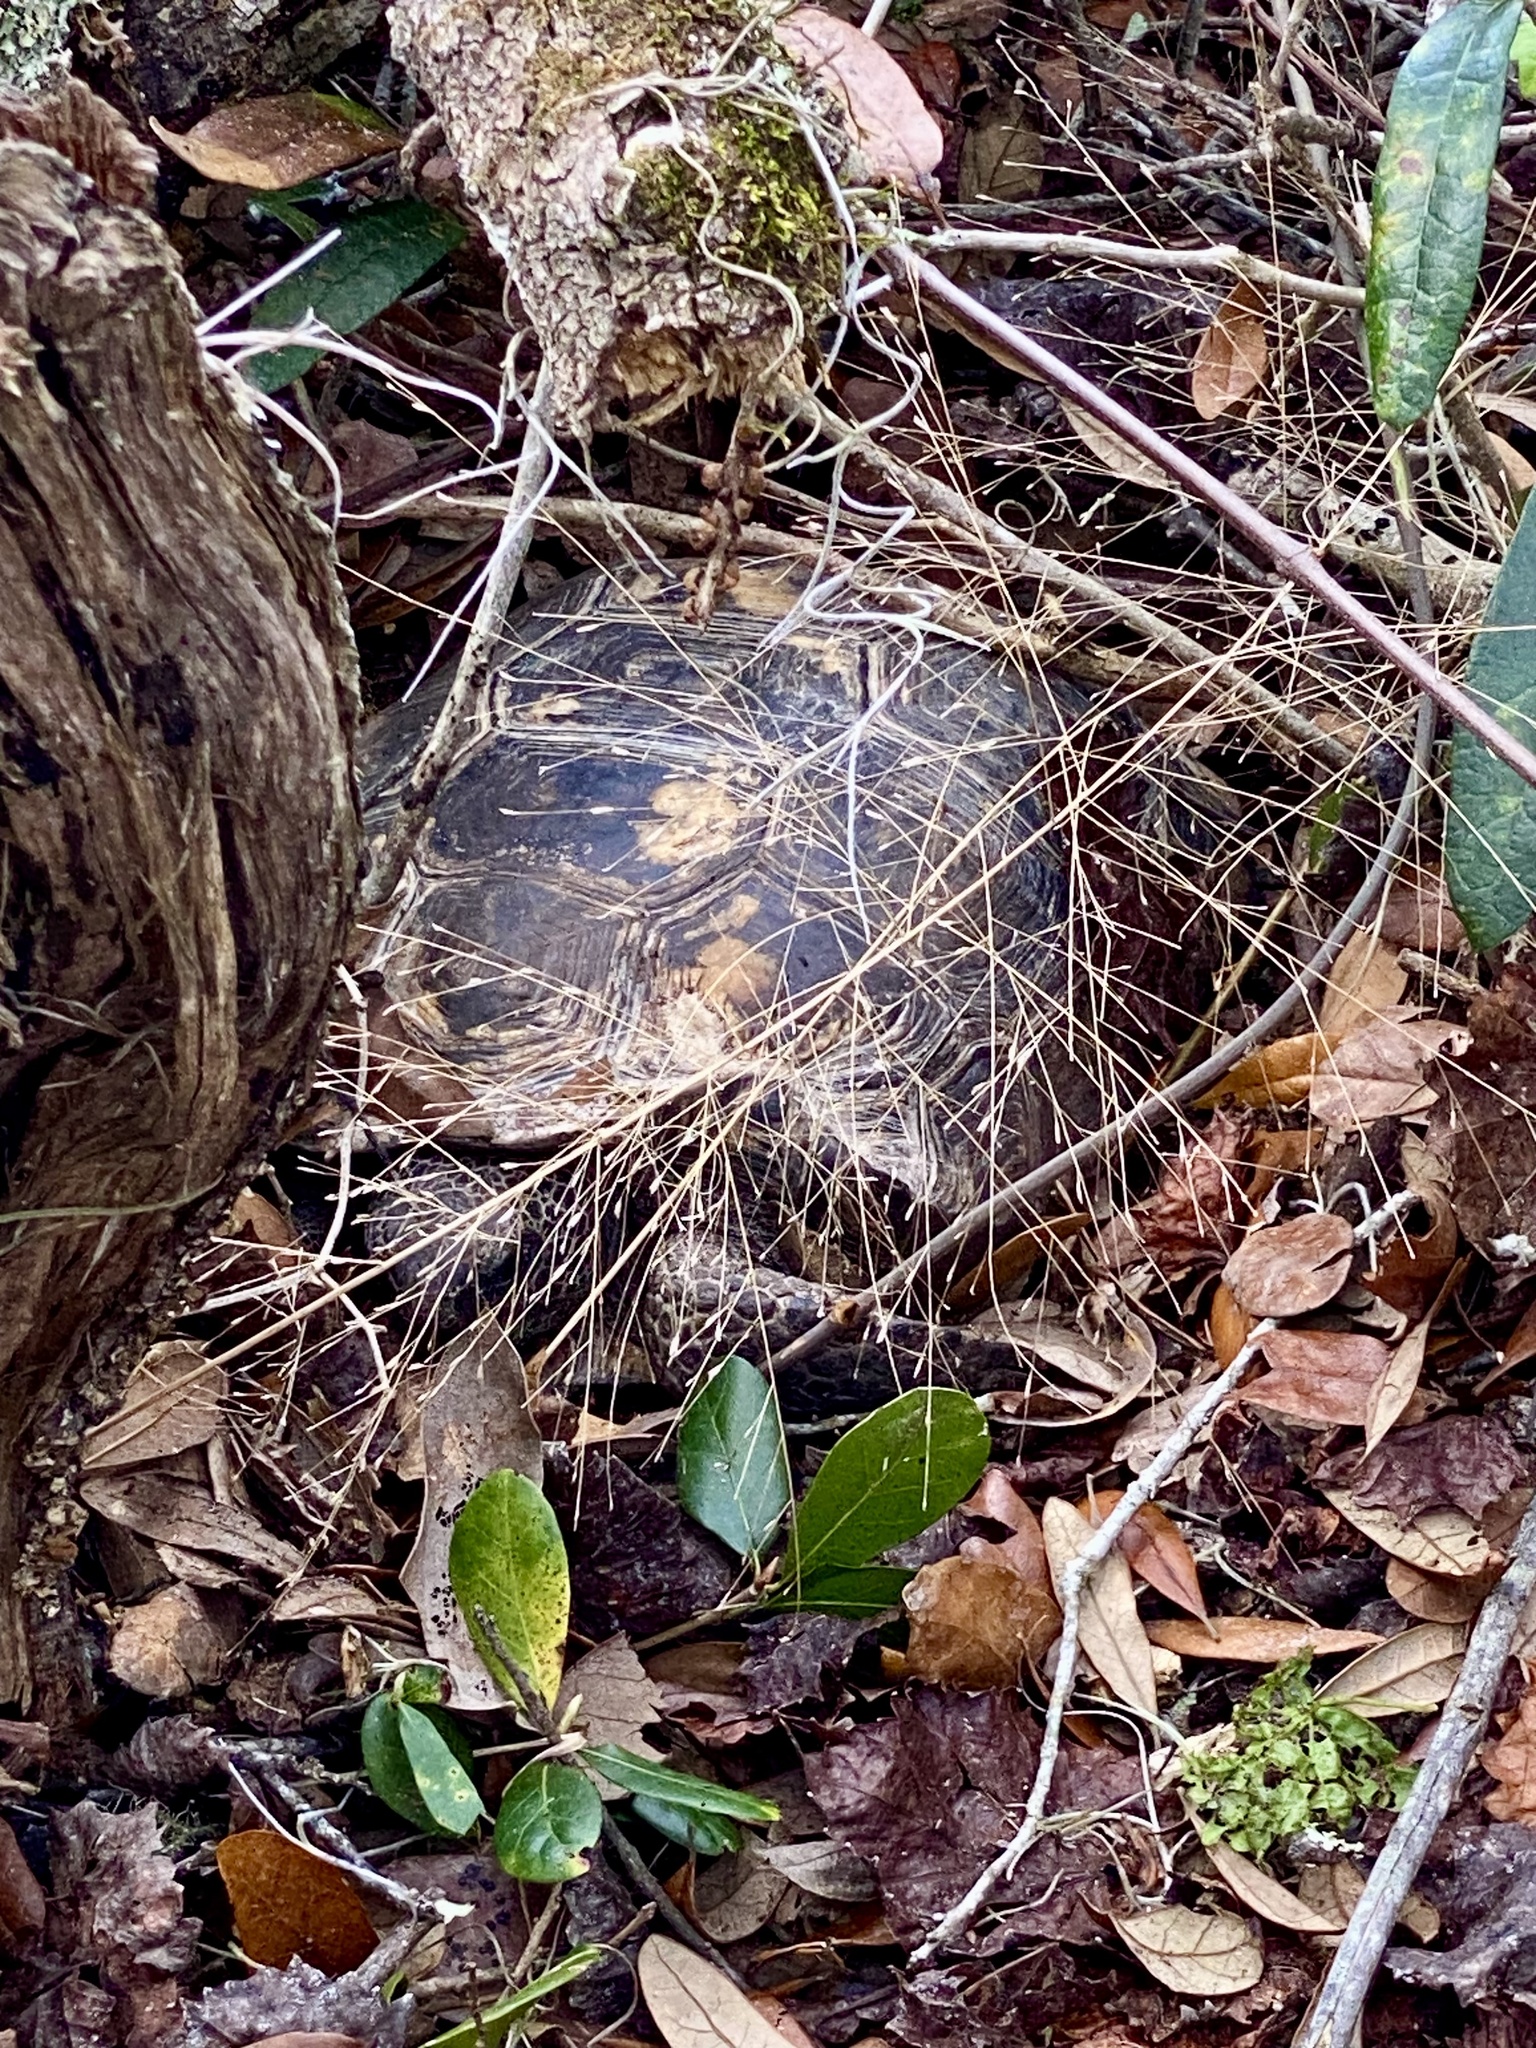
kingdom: Animalia
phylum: Chordata
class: Testudines
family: Testudinidae
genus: Gopherus
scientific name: Gopherus polyphemus
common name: Florida gopher tortoise
